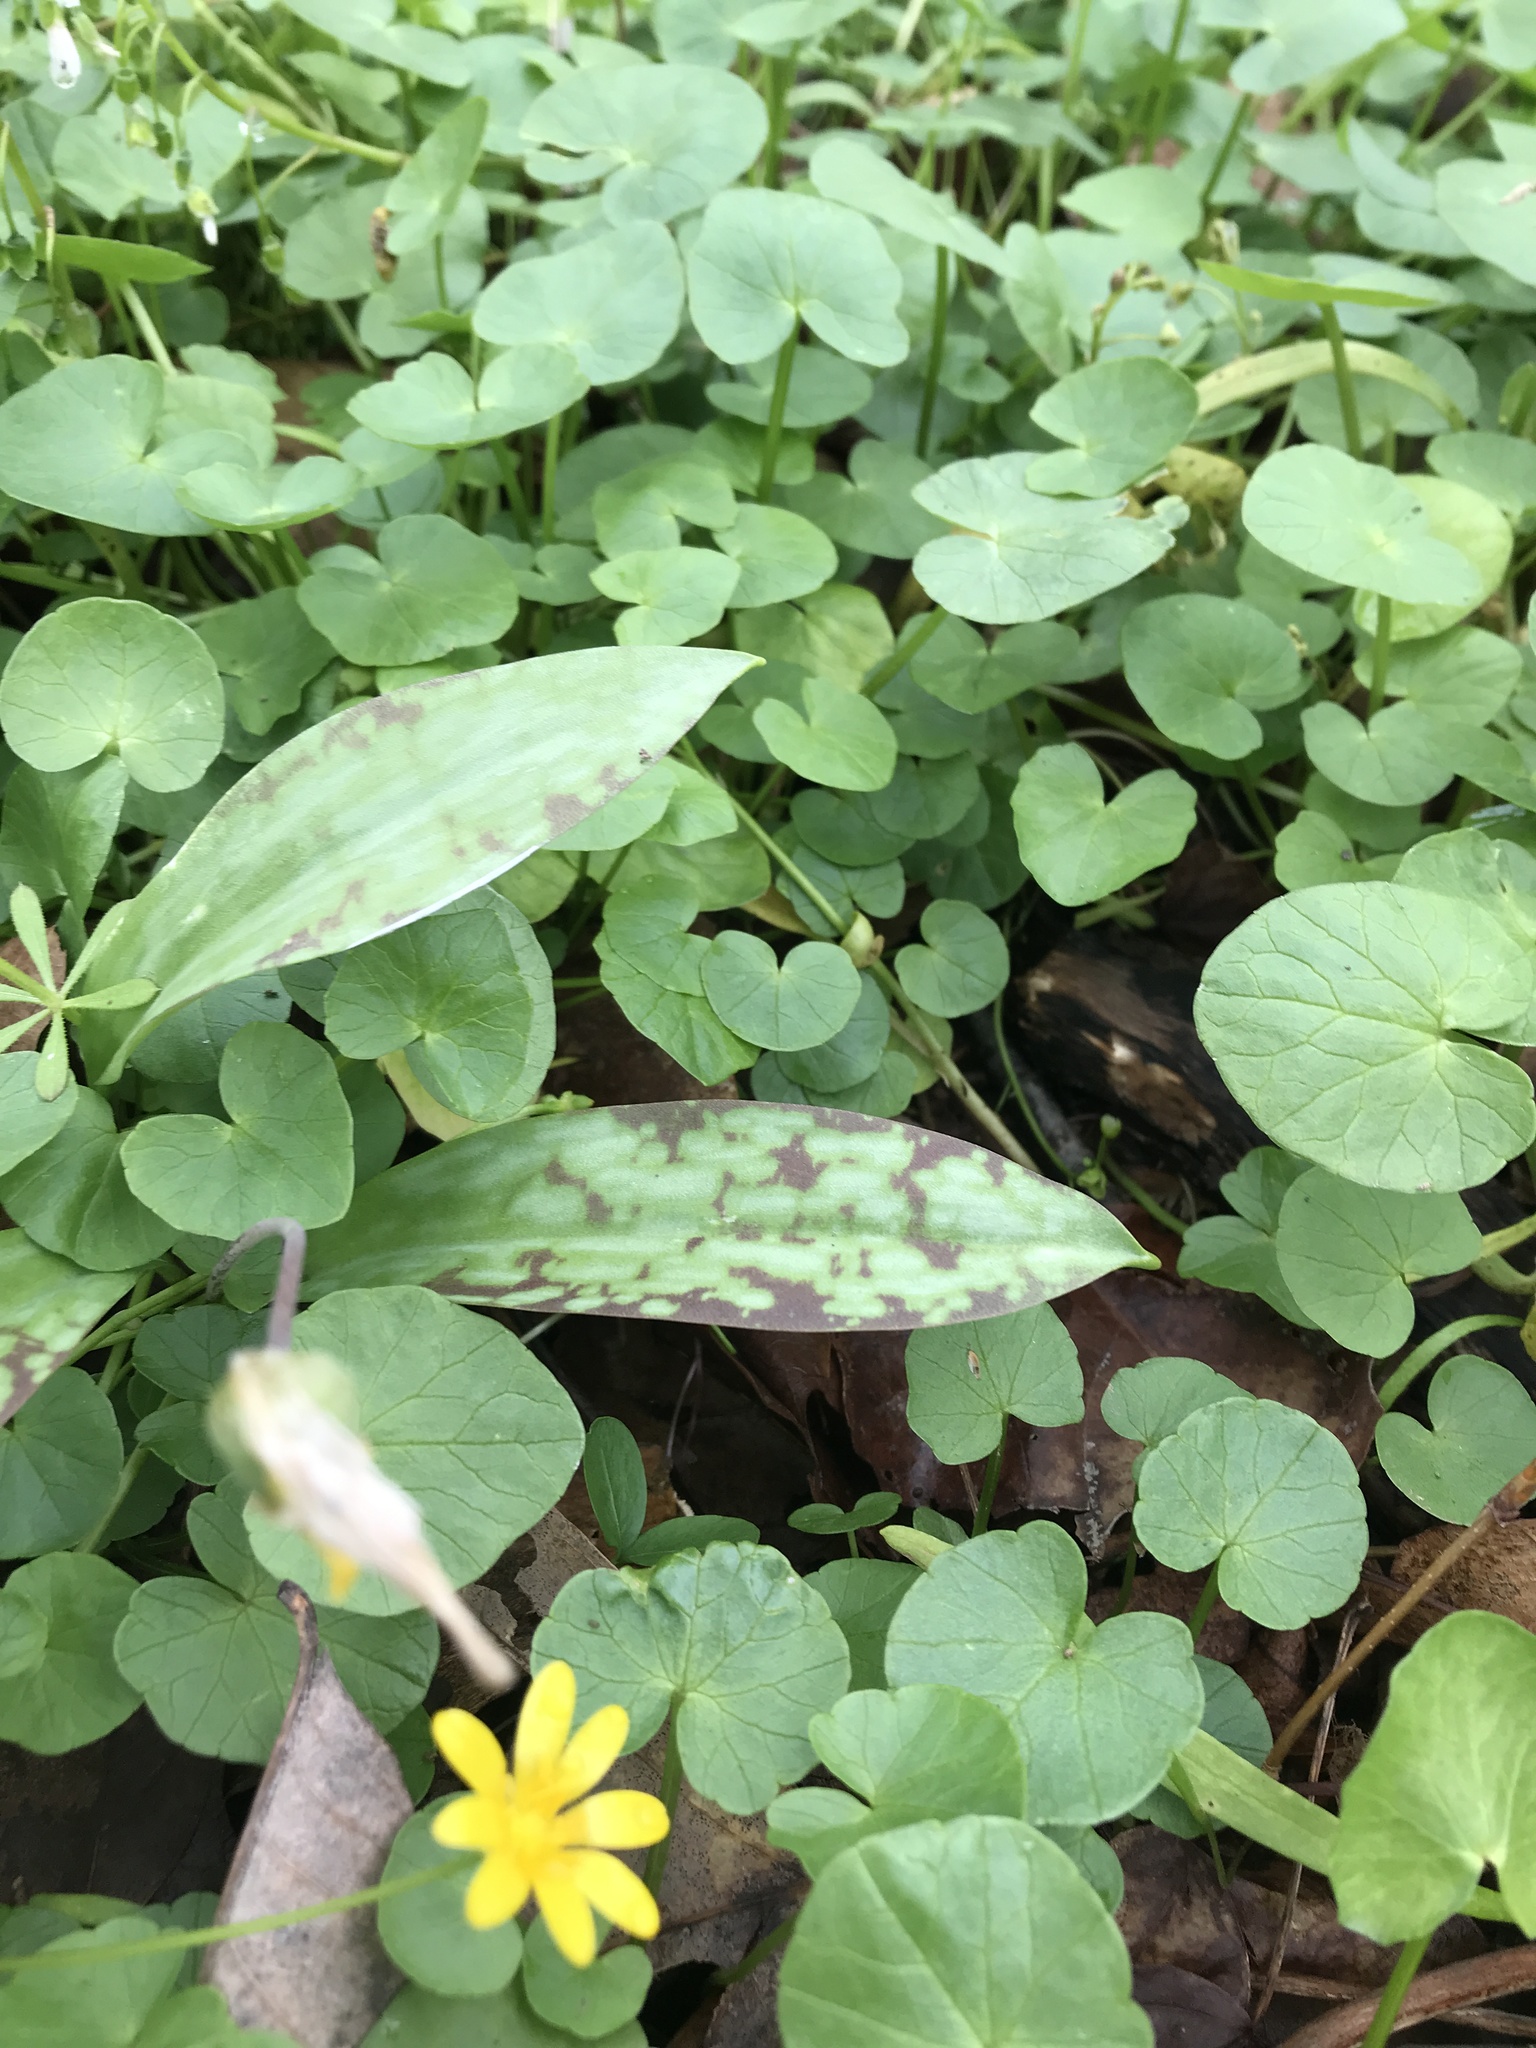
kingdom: Plantae
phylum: Tracheophyta
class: Liliopsida
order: Liliales
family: Liliaceae
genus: Erythronium
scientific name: Erythronium americanum
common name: Yellow adder's-tongue
